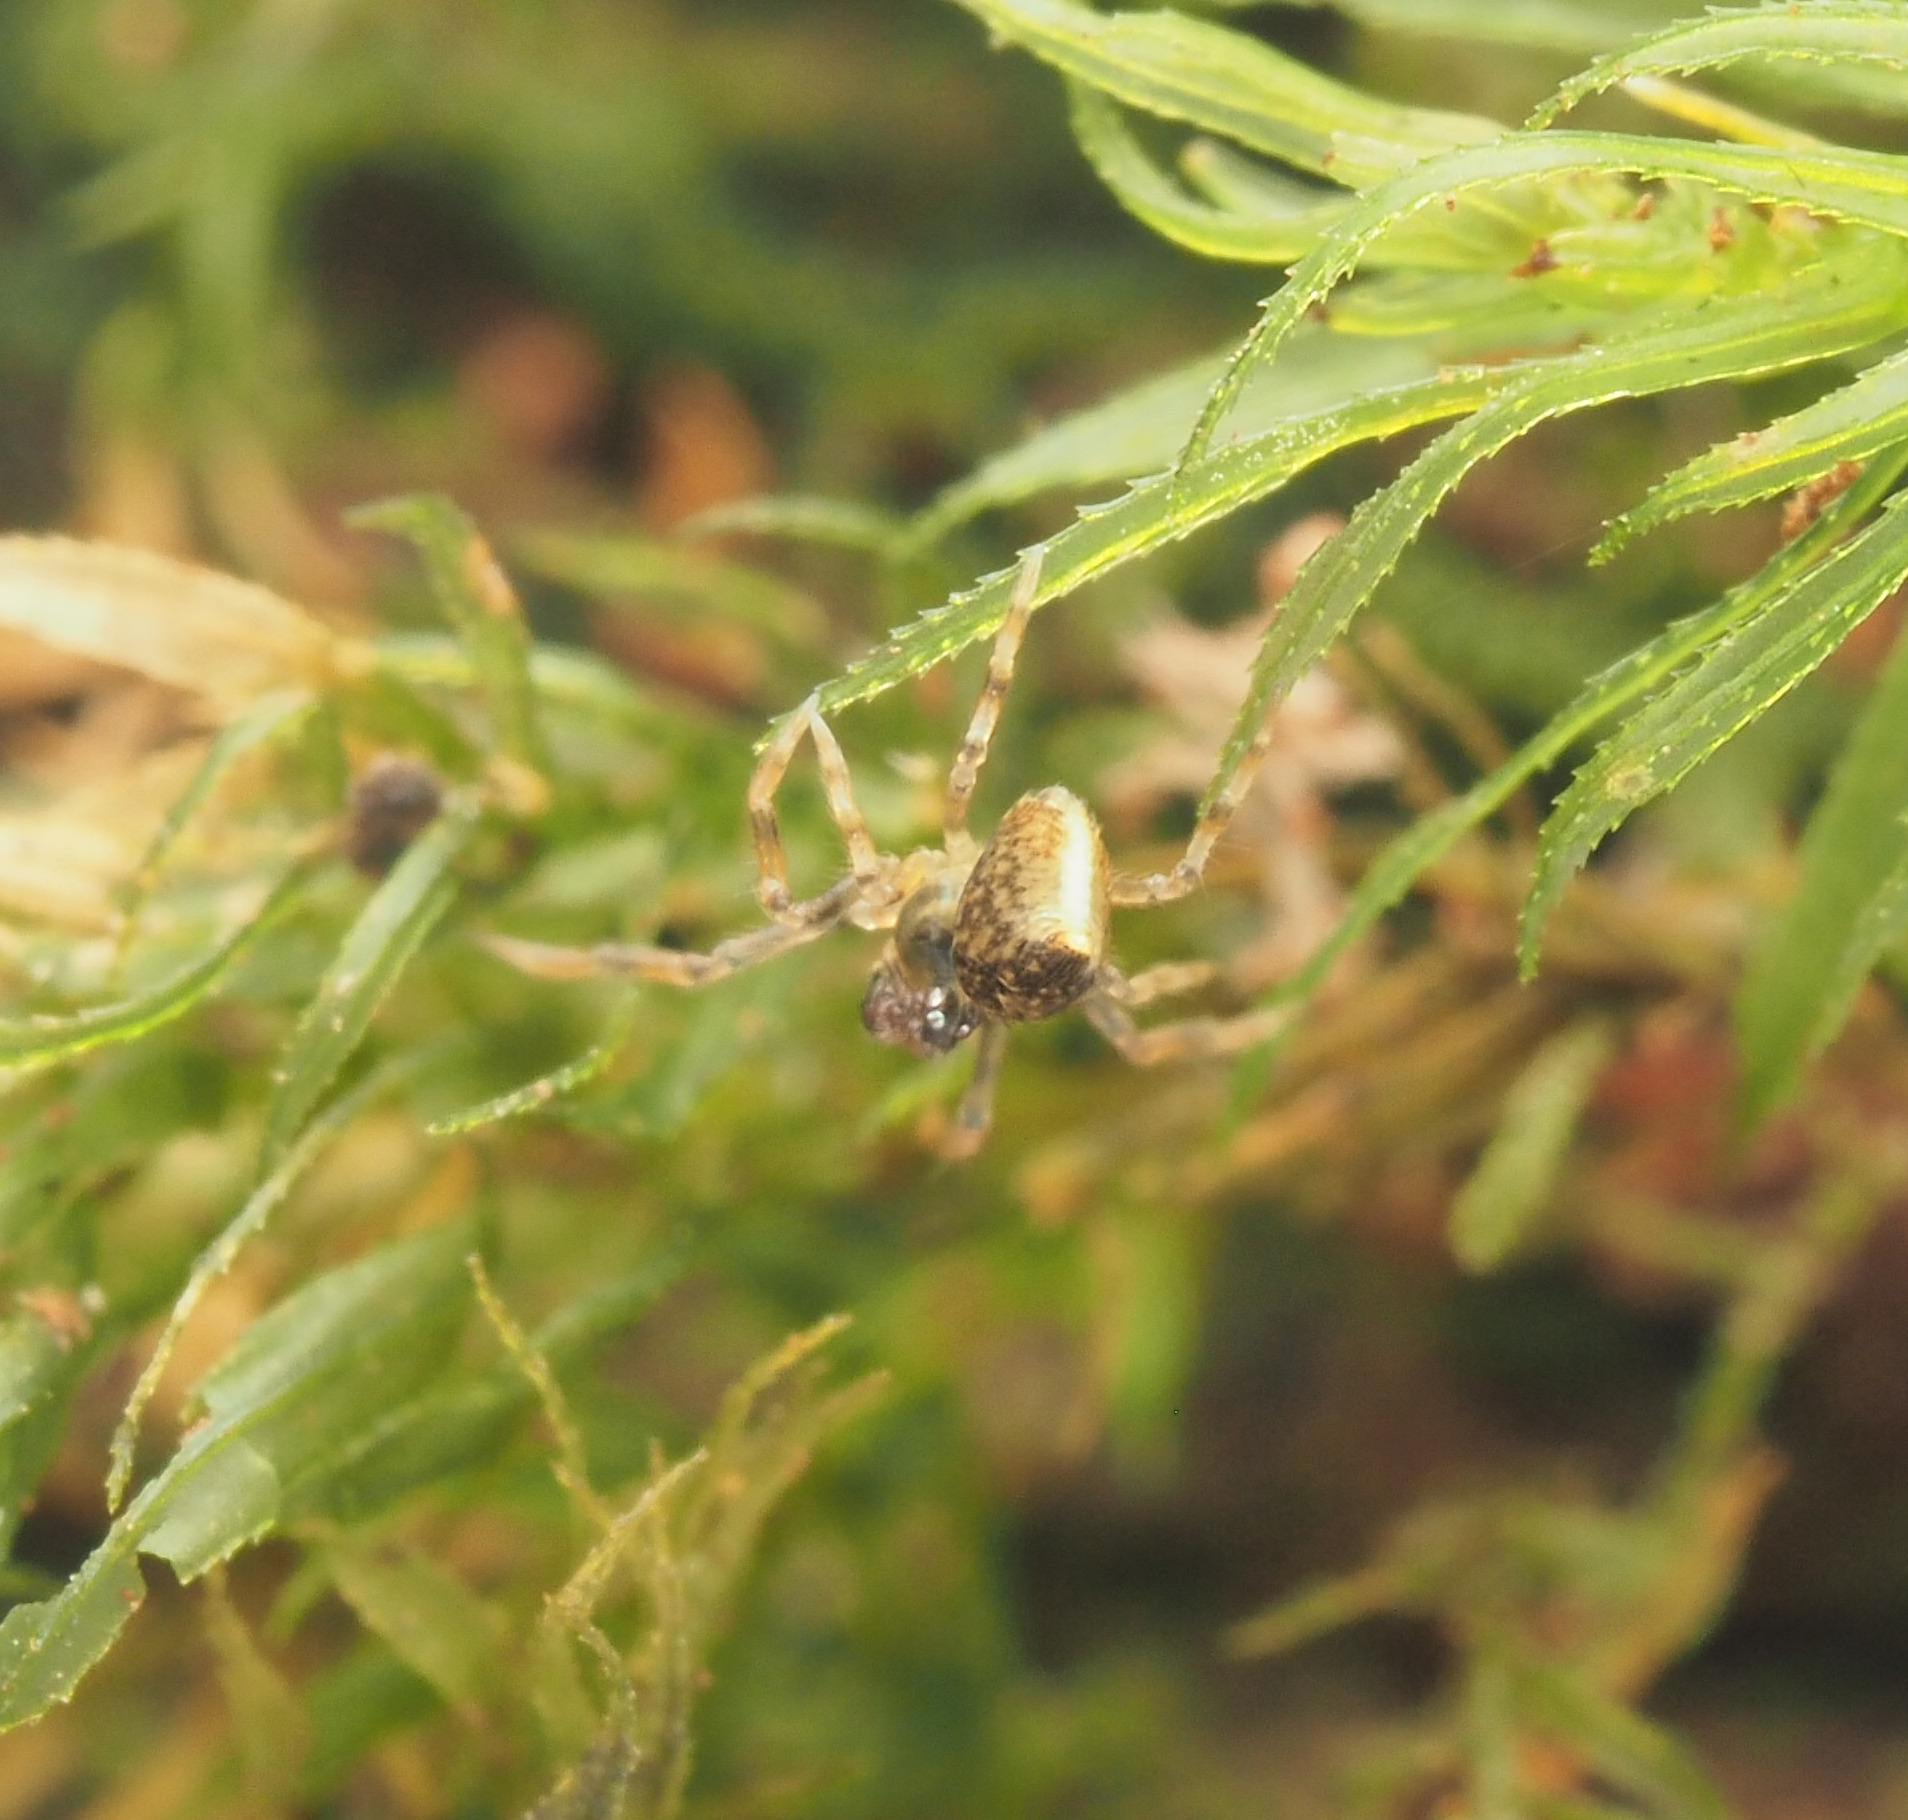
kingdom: Animalia
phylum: Arthropoda
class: Arachnida
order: Araneae
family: Mysmenidae
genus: Trogloneta
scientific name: Trogloneta
